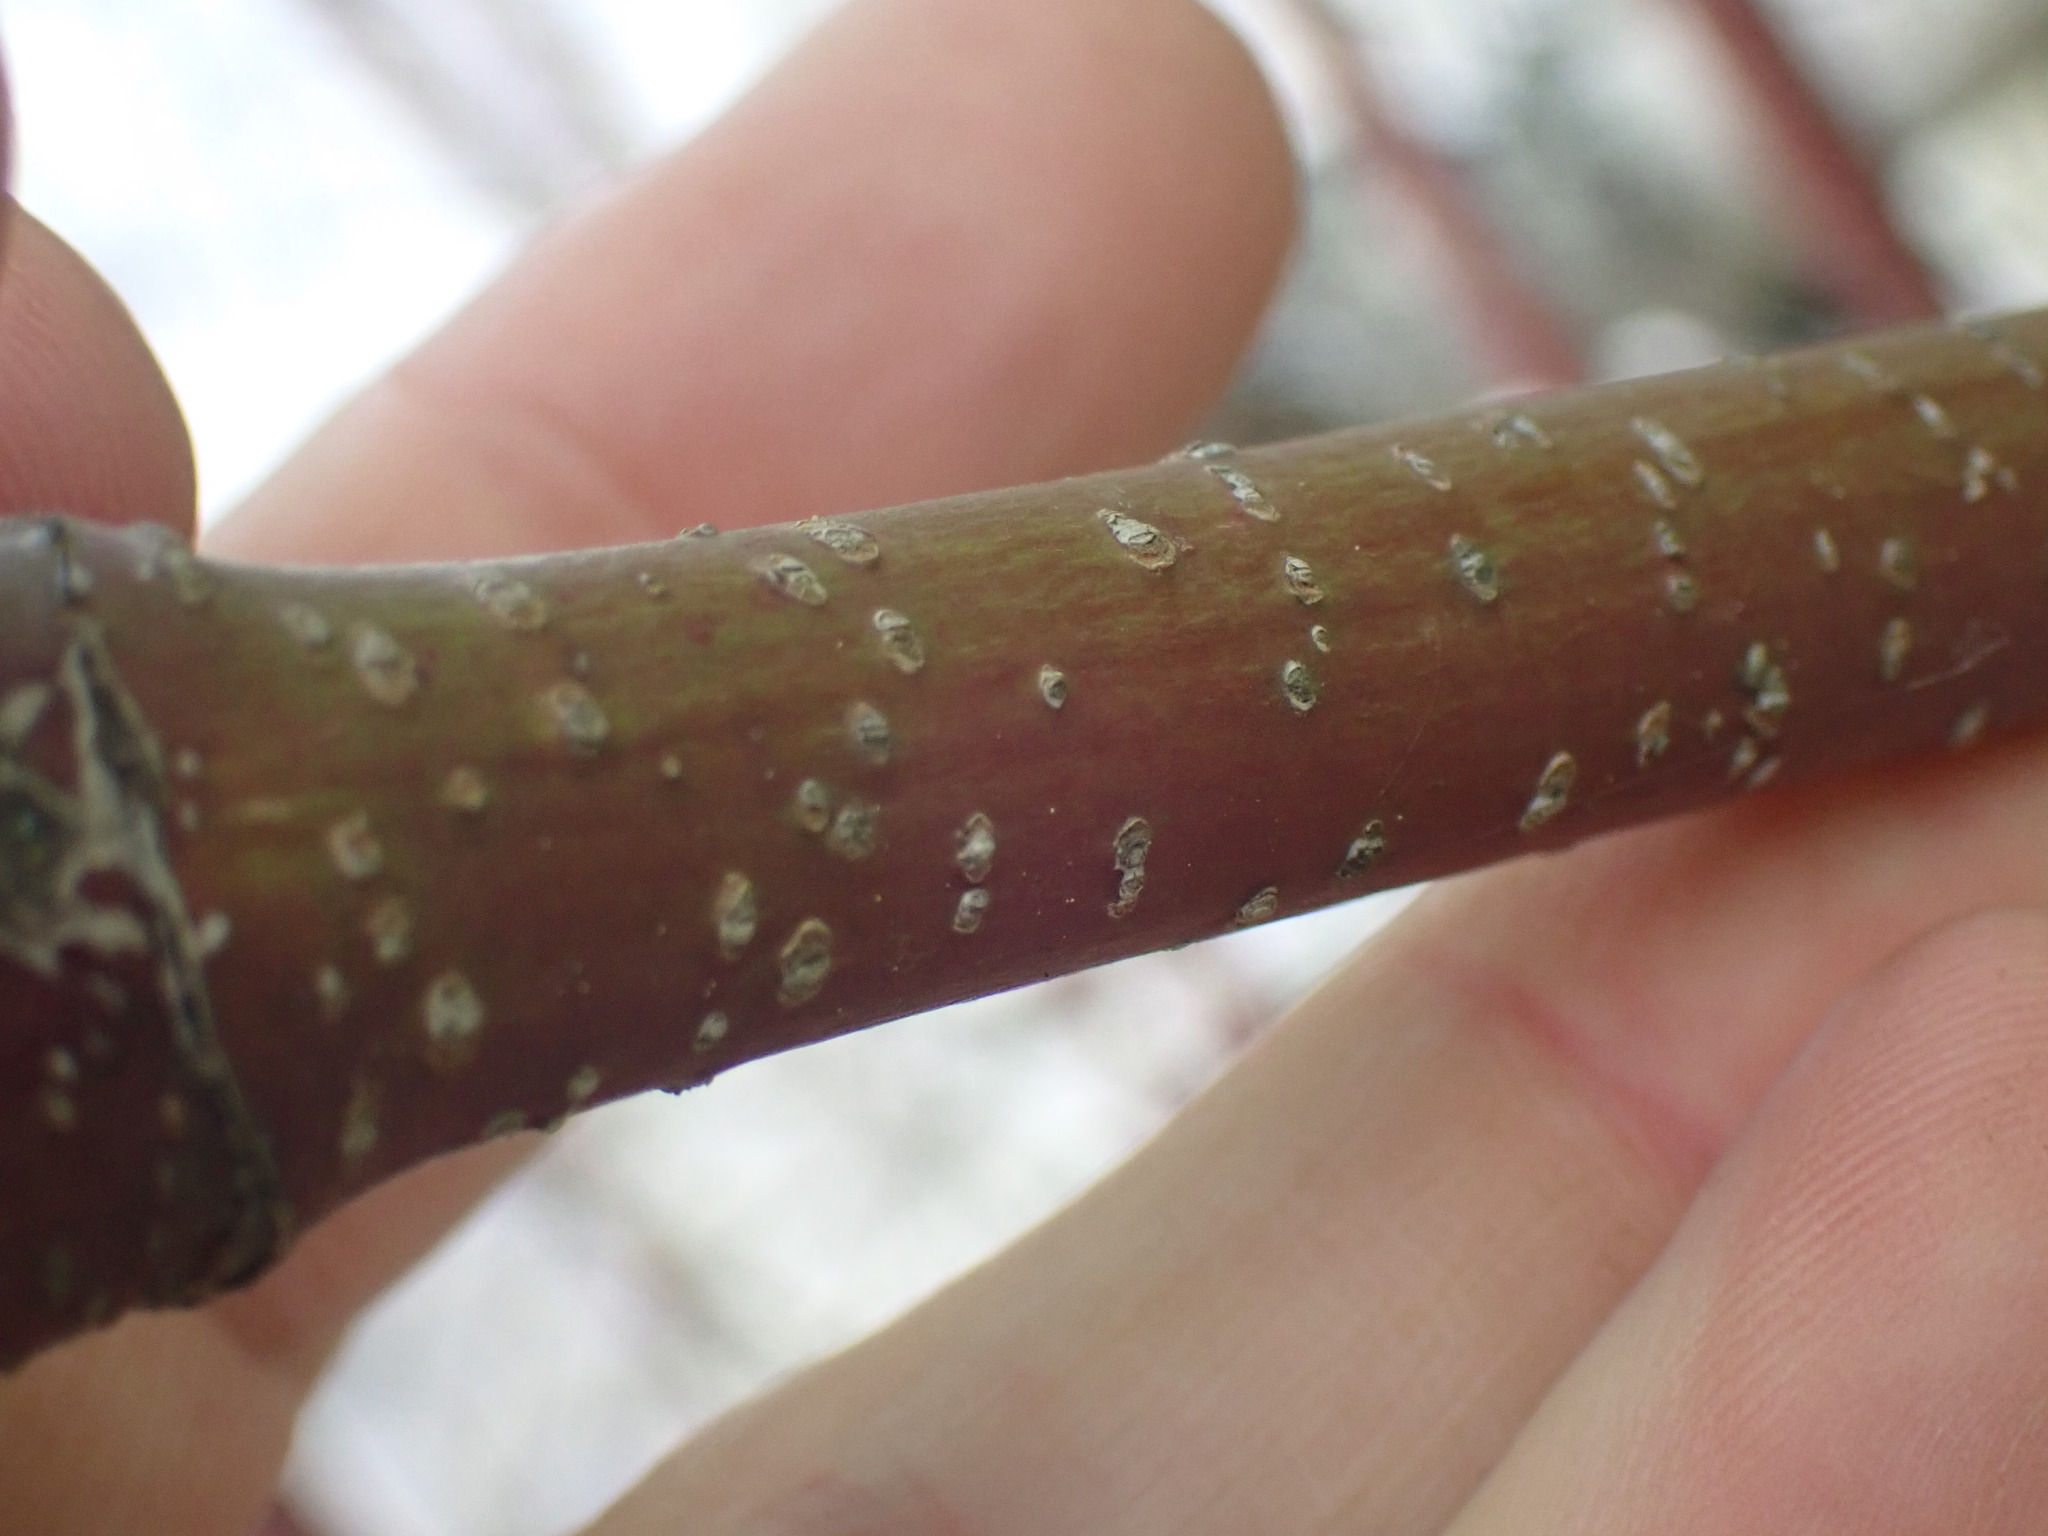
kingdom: Plantae
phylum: Tracheophyta
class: Magnoliopsida
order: Cornales
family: Cornaceae
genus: Cornus
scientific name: Cornus sericea
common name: Red-osier dogwood
